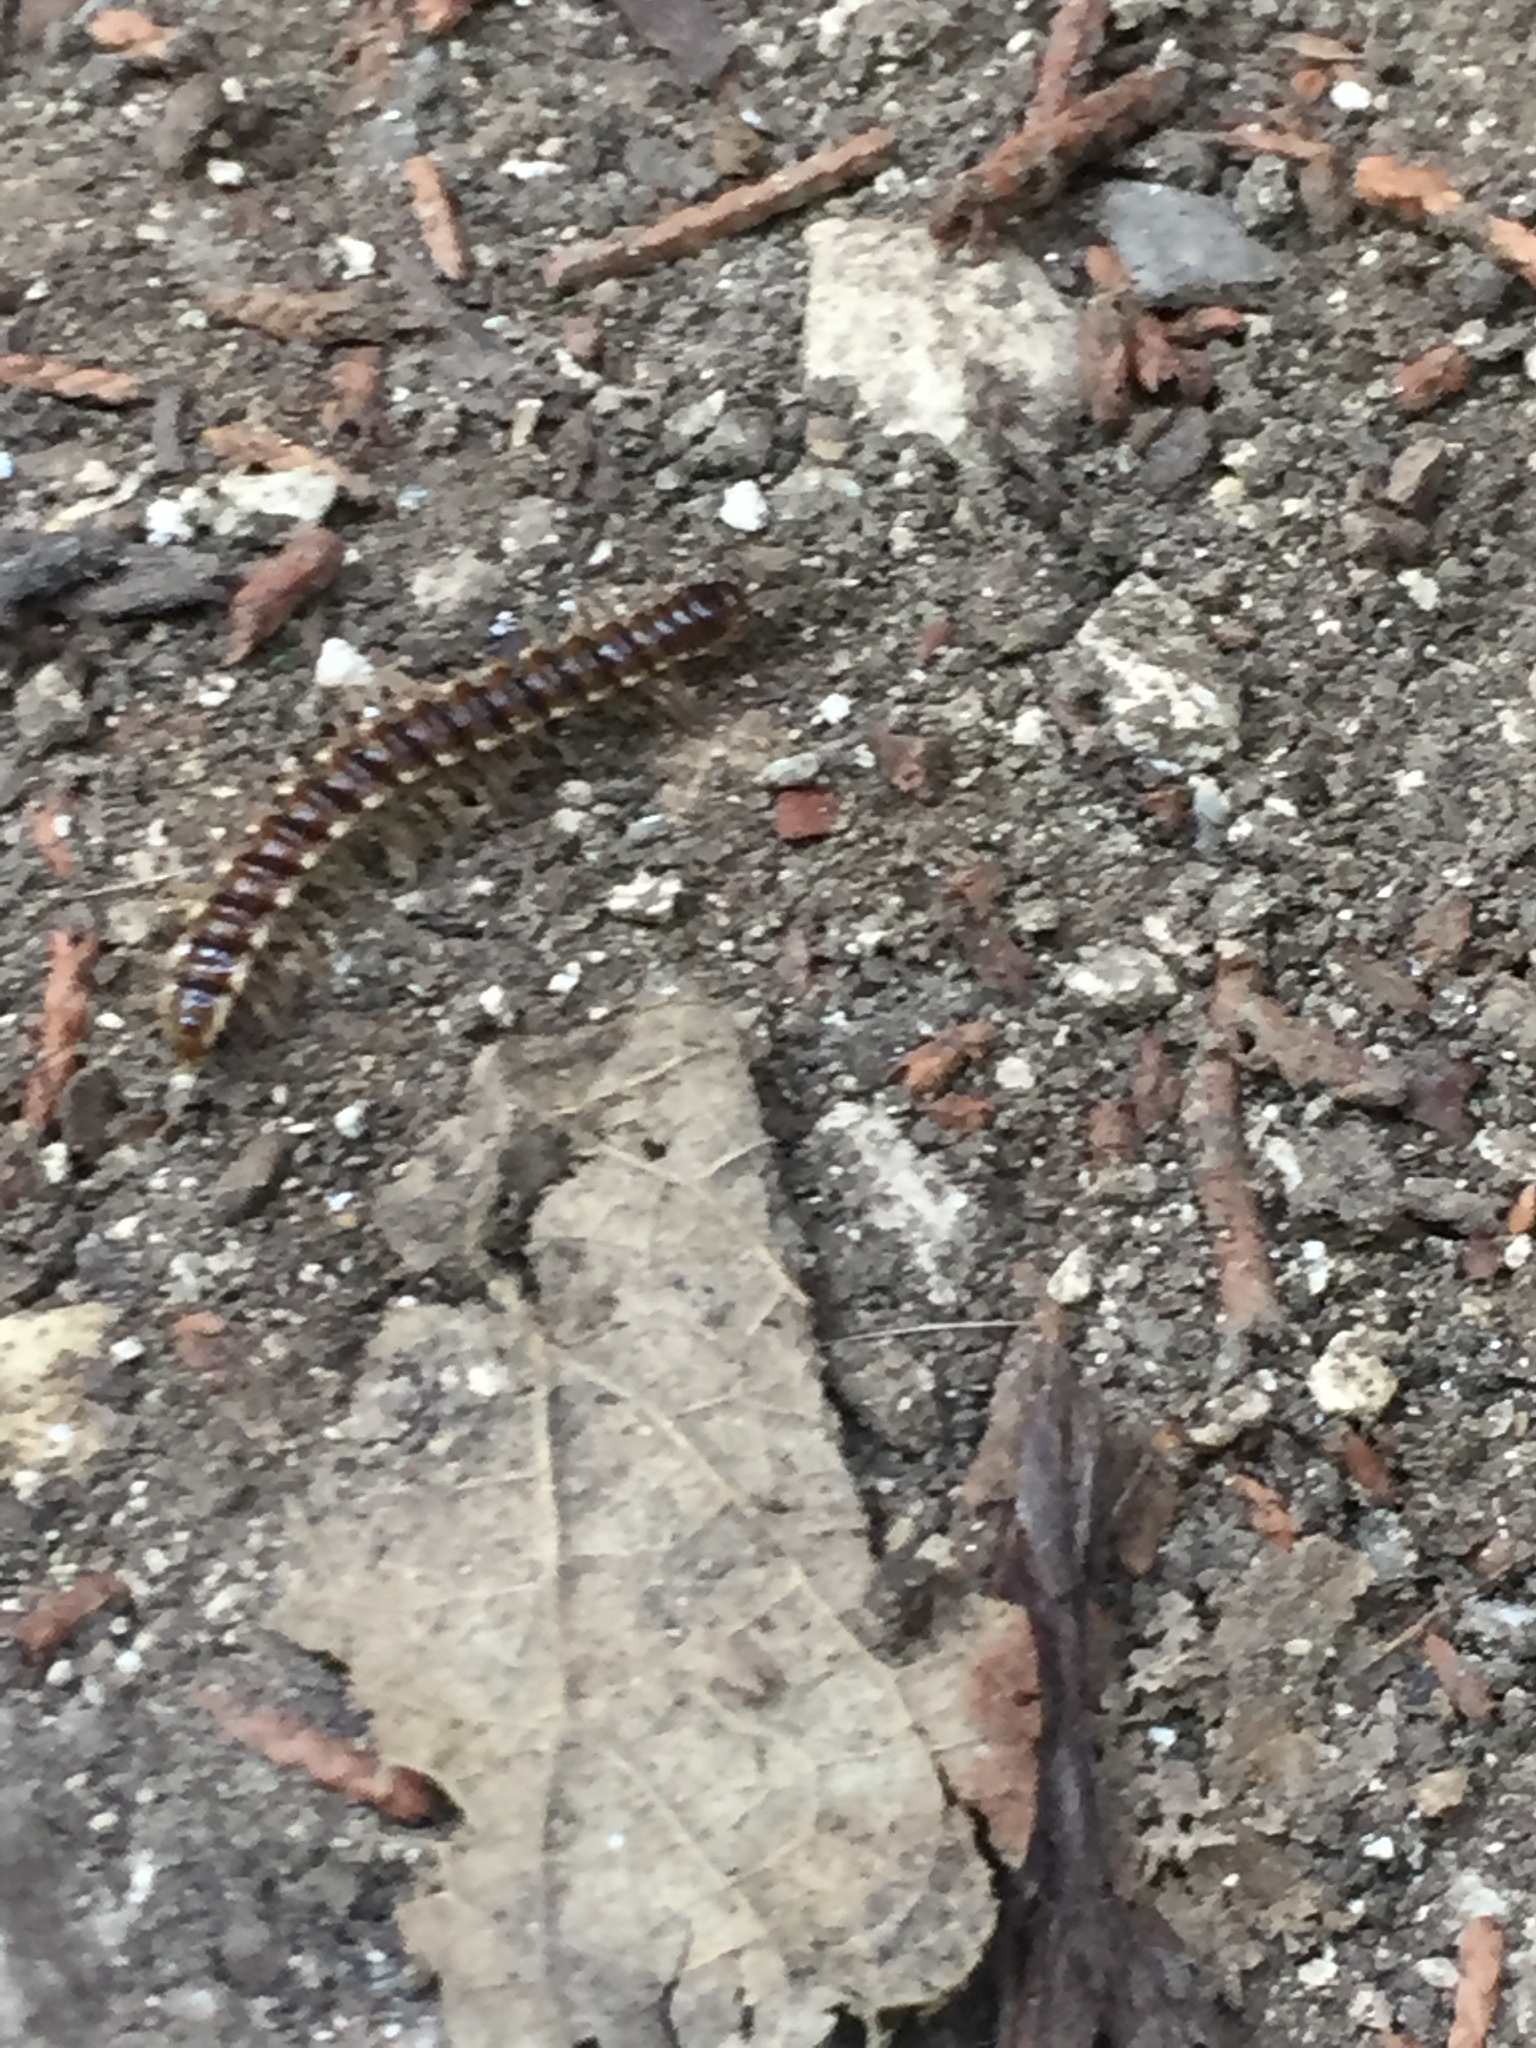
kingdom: Animalia
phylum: Arthropoda
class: Diplopoda
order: Polydesmida
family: Paradoxosomatidae
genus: Oxidus
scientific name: Oxidus gracilis
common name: Greenhouse millipede
